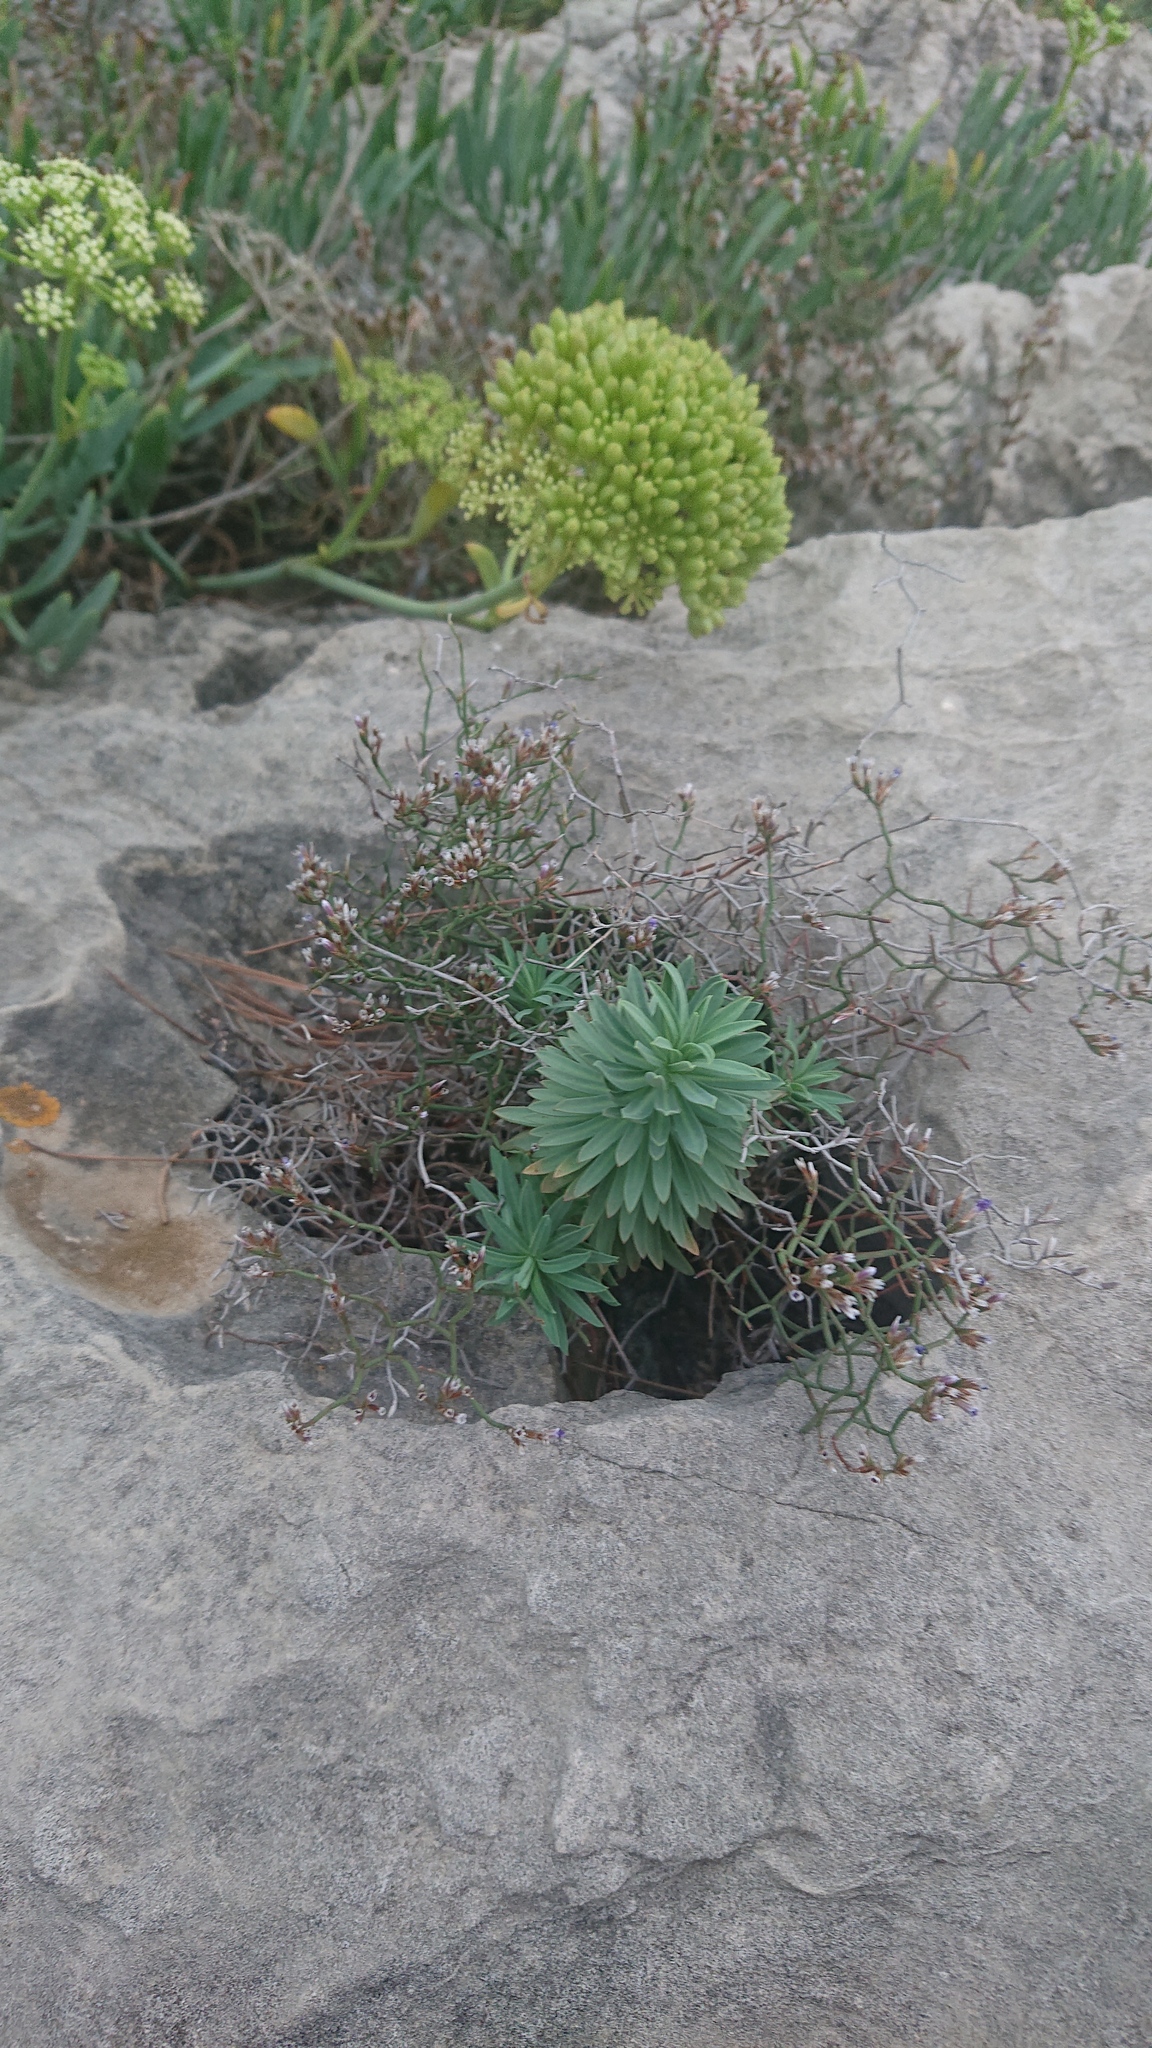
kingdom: Plantae
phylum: Tracheophyta
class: Magnoliopsida
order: Malpighiales
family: Euphorbiaceae
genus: Euphorbia
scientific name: Euphorbia segetalis
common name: Corn spurge
